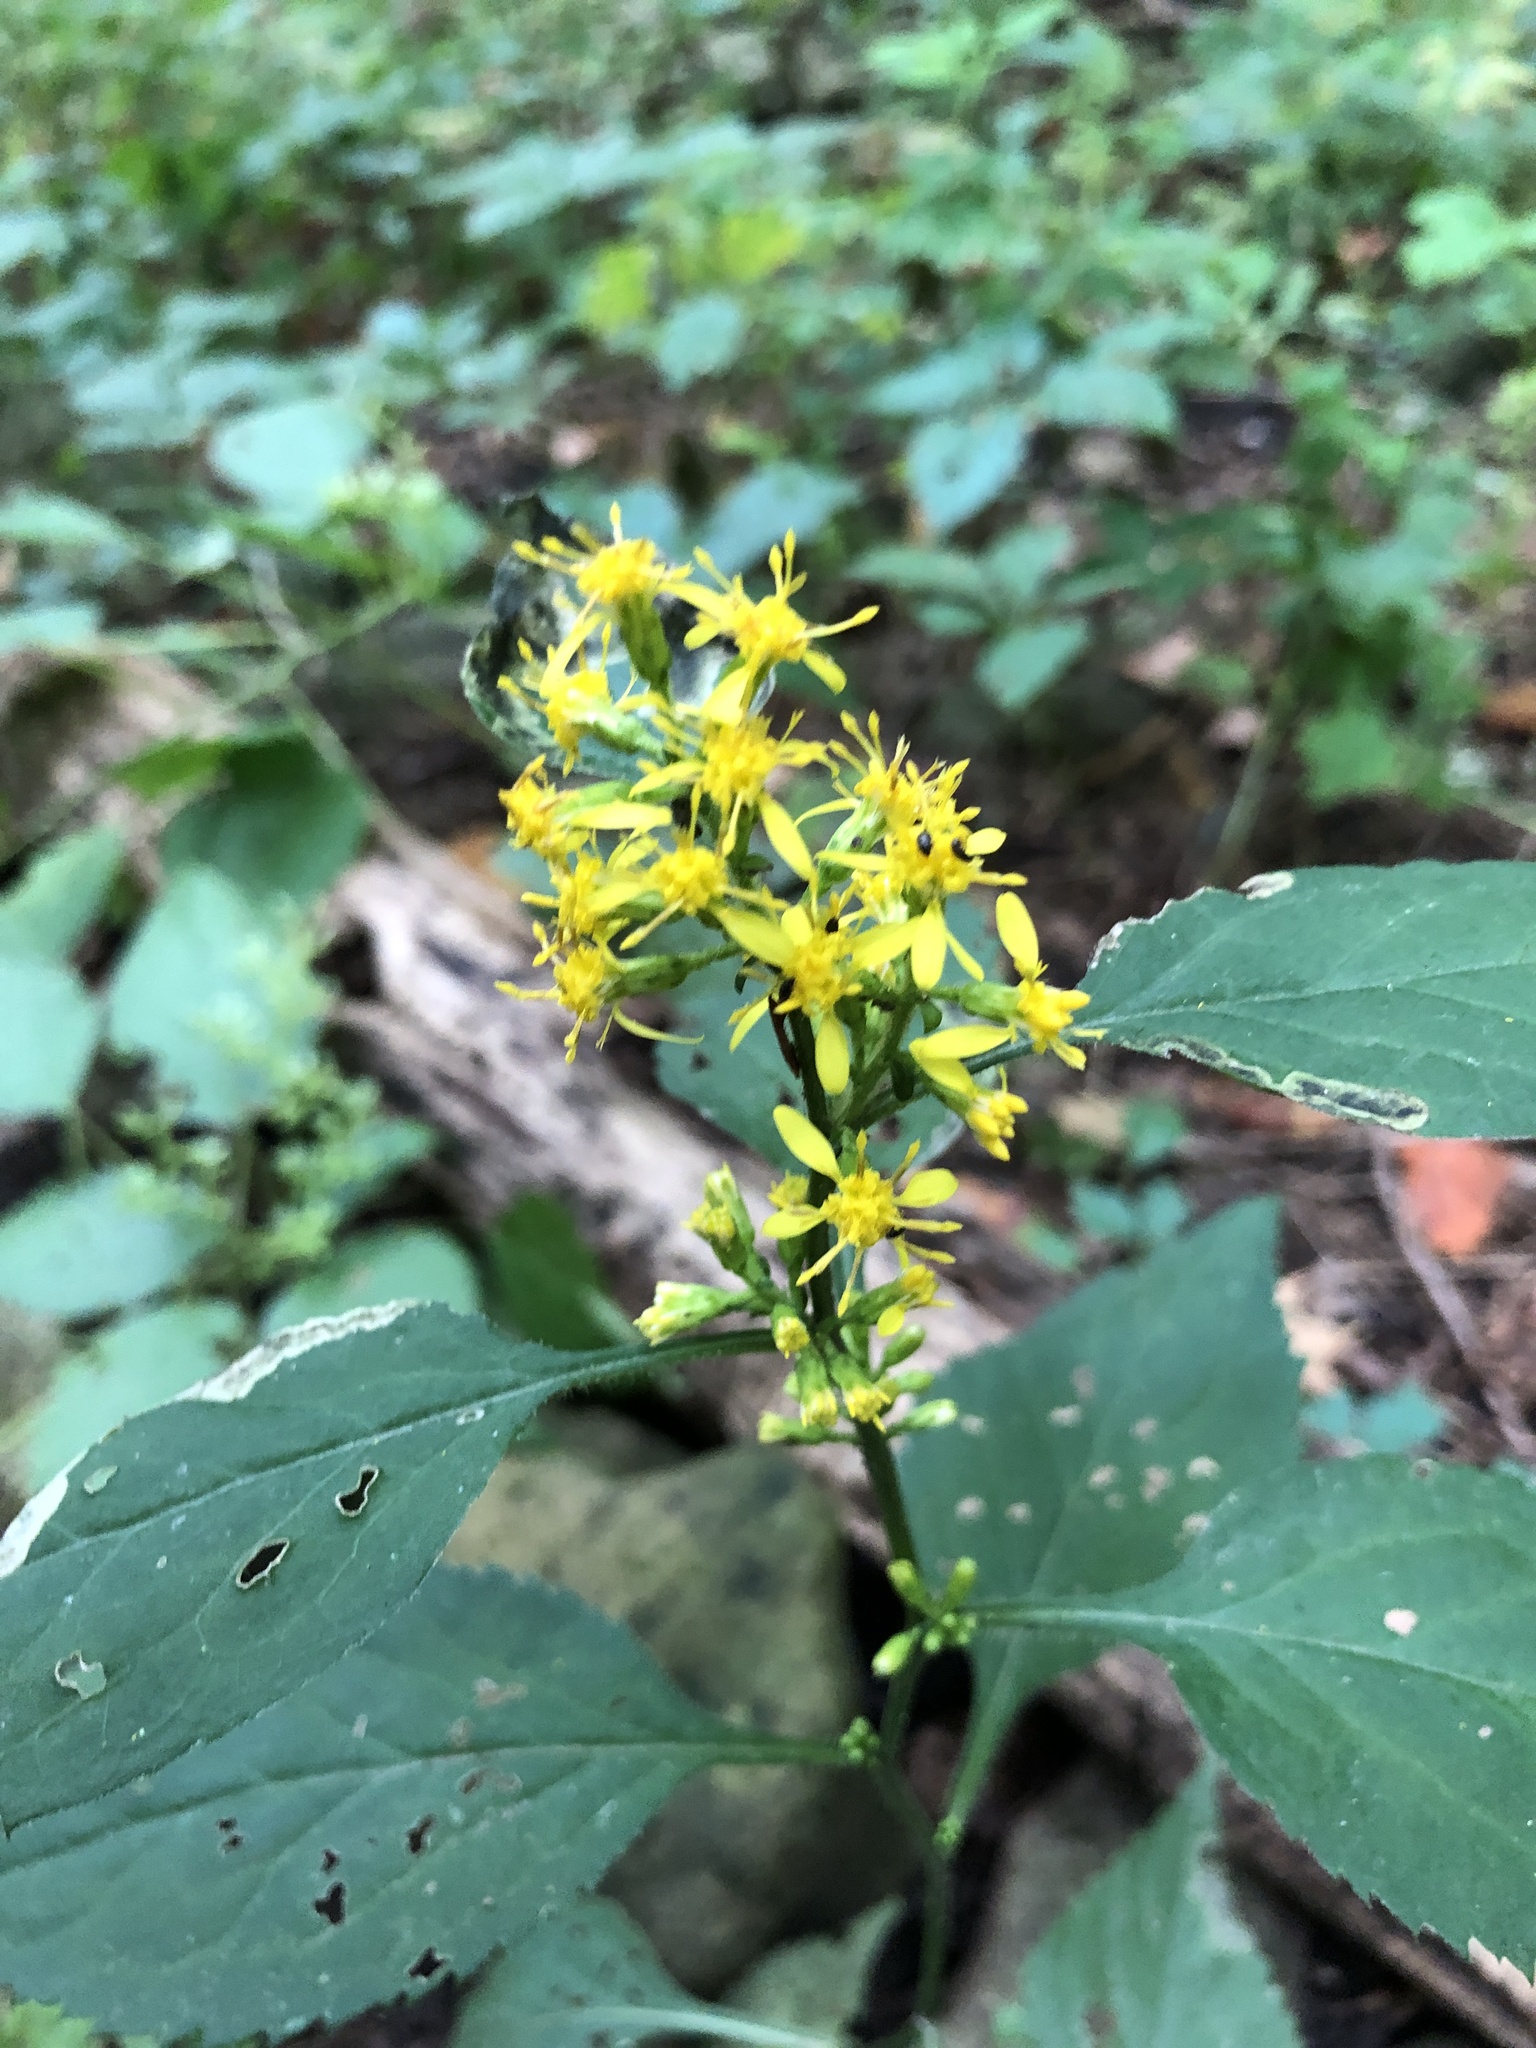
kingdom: Plantae
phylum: Tracheophyta
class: Magnoliopsida
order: Asterales
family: Asteraceae
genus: Solidago
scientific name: Solidago flexicaulis
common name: Zig-zag goldenrod
